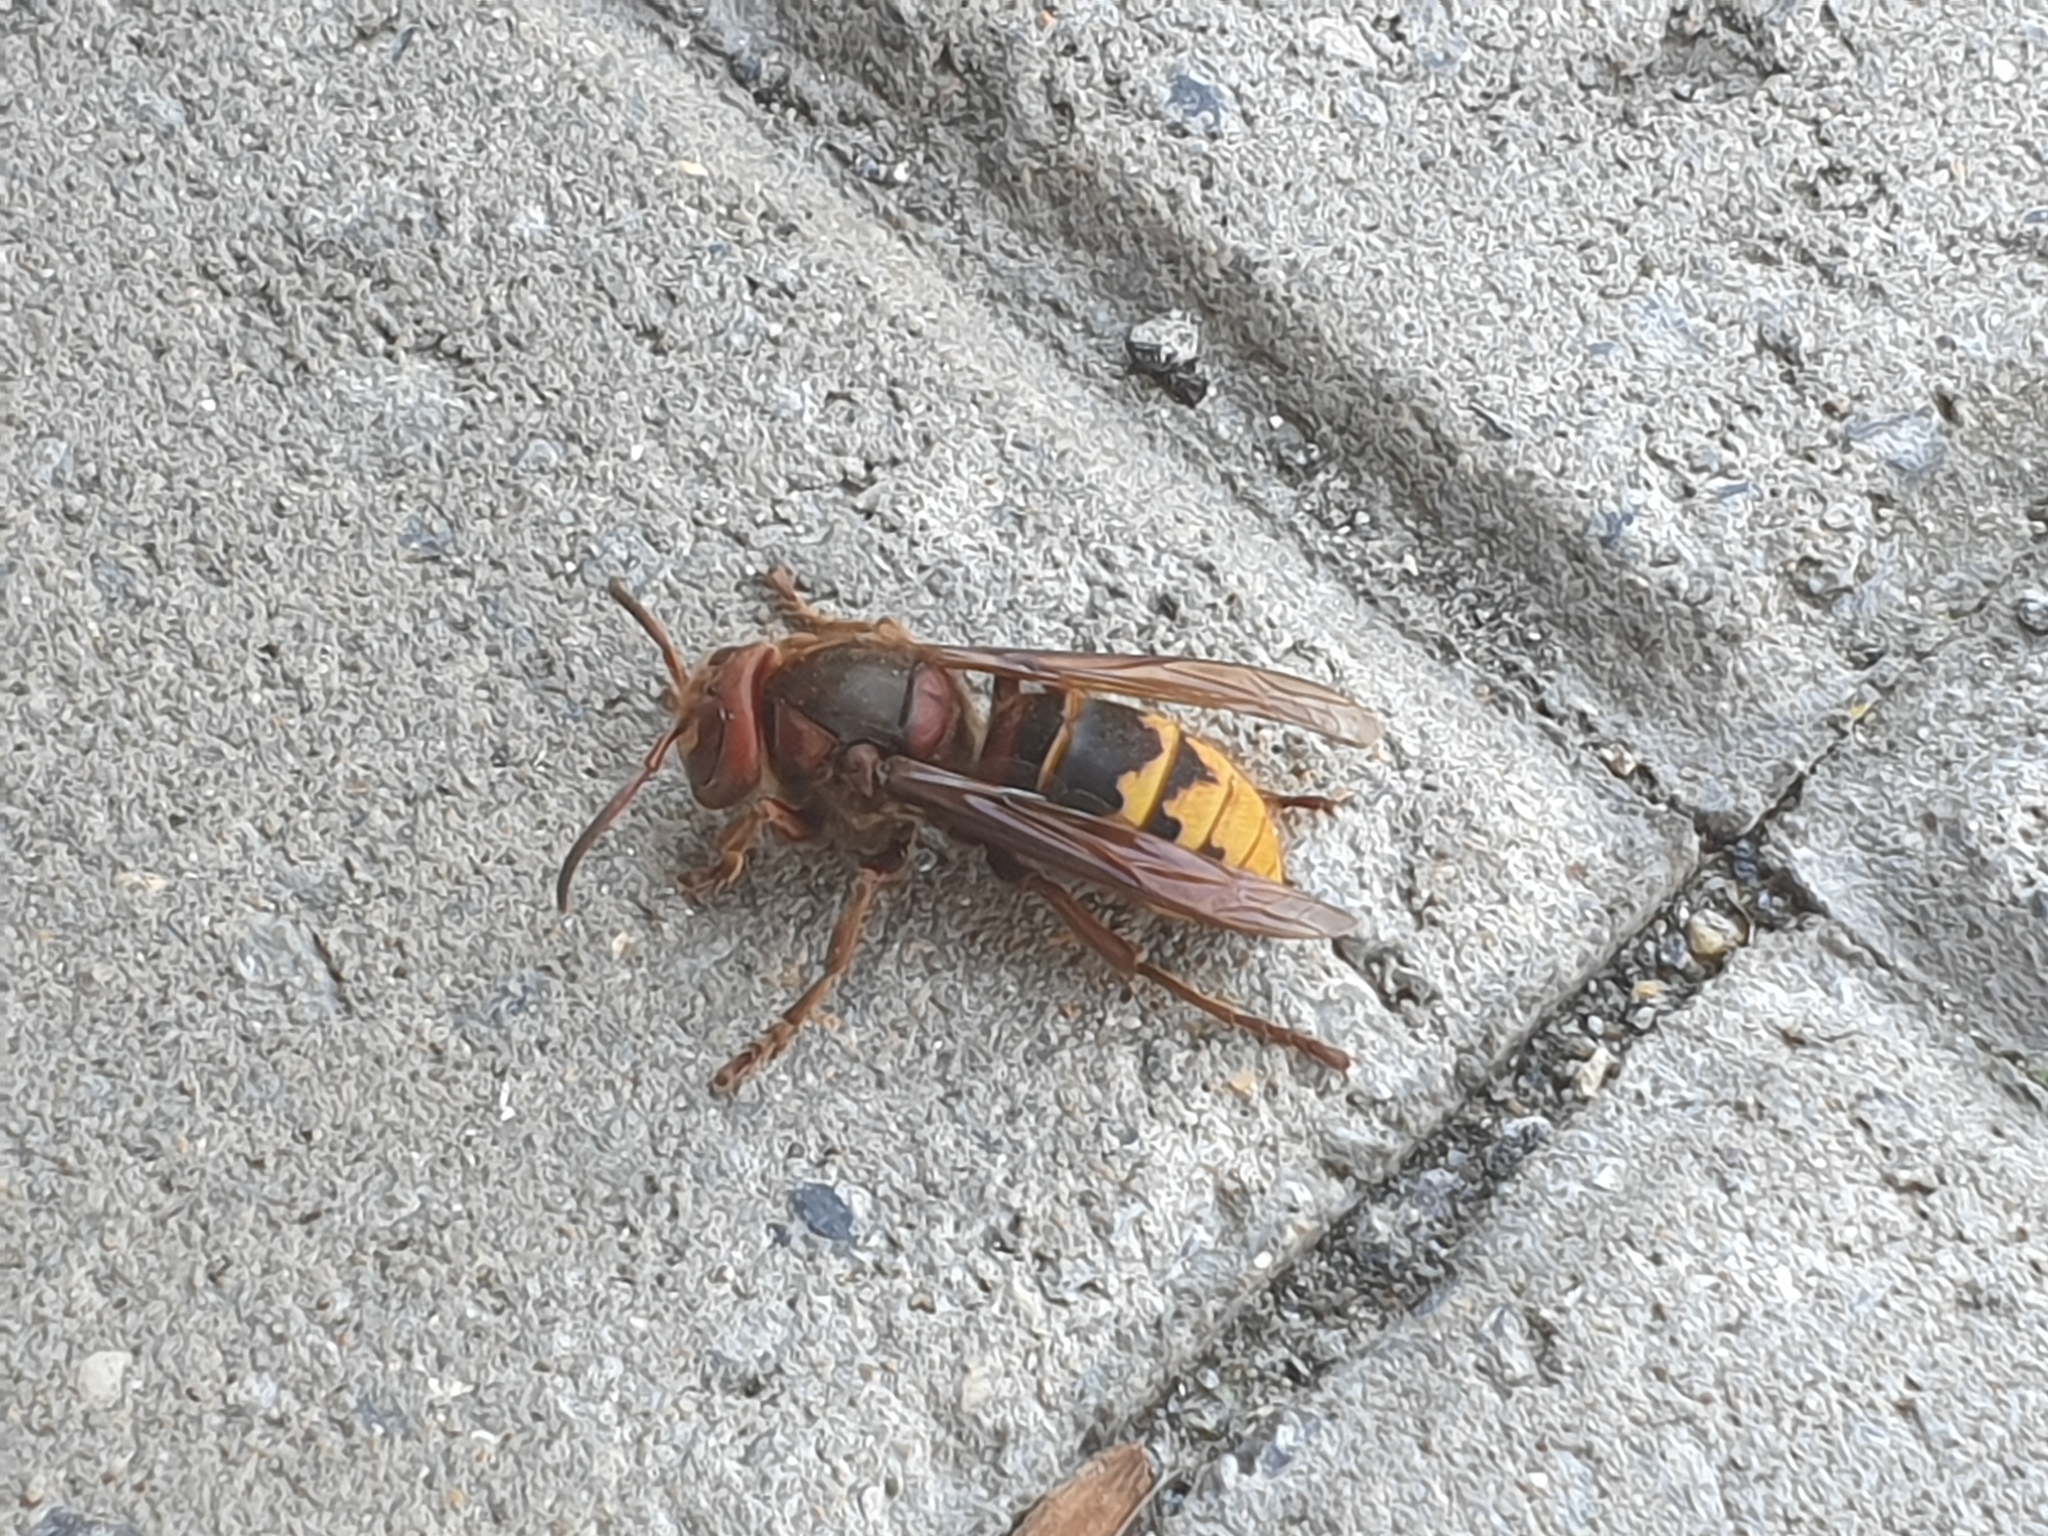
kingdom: Animalia
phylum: Arthropoda
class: Insecta
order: Hymenoptera
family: Vespidae
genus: Vespa
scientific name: Vespa crabro
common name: Hornet
